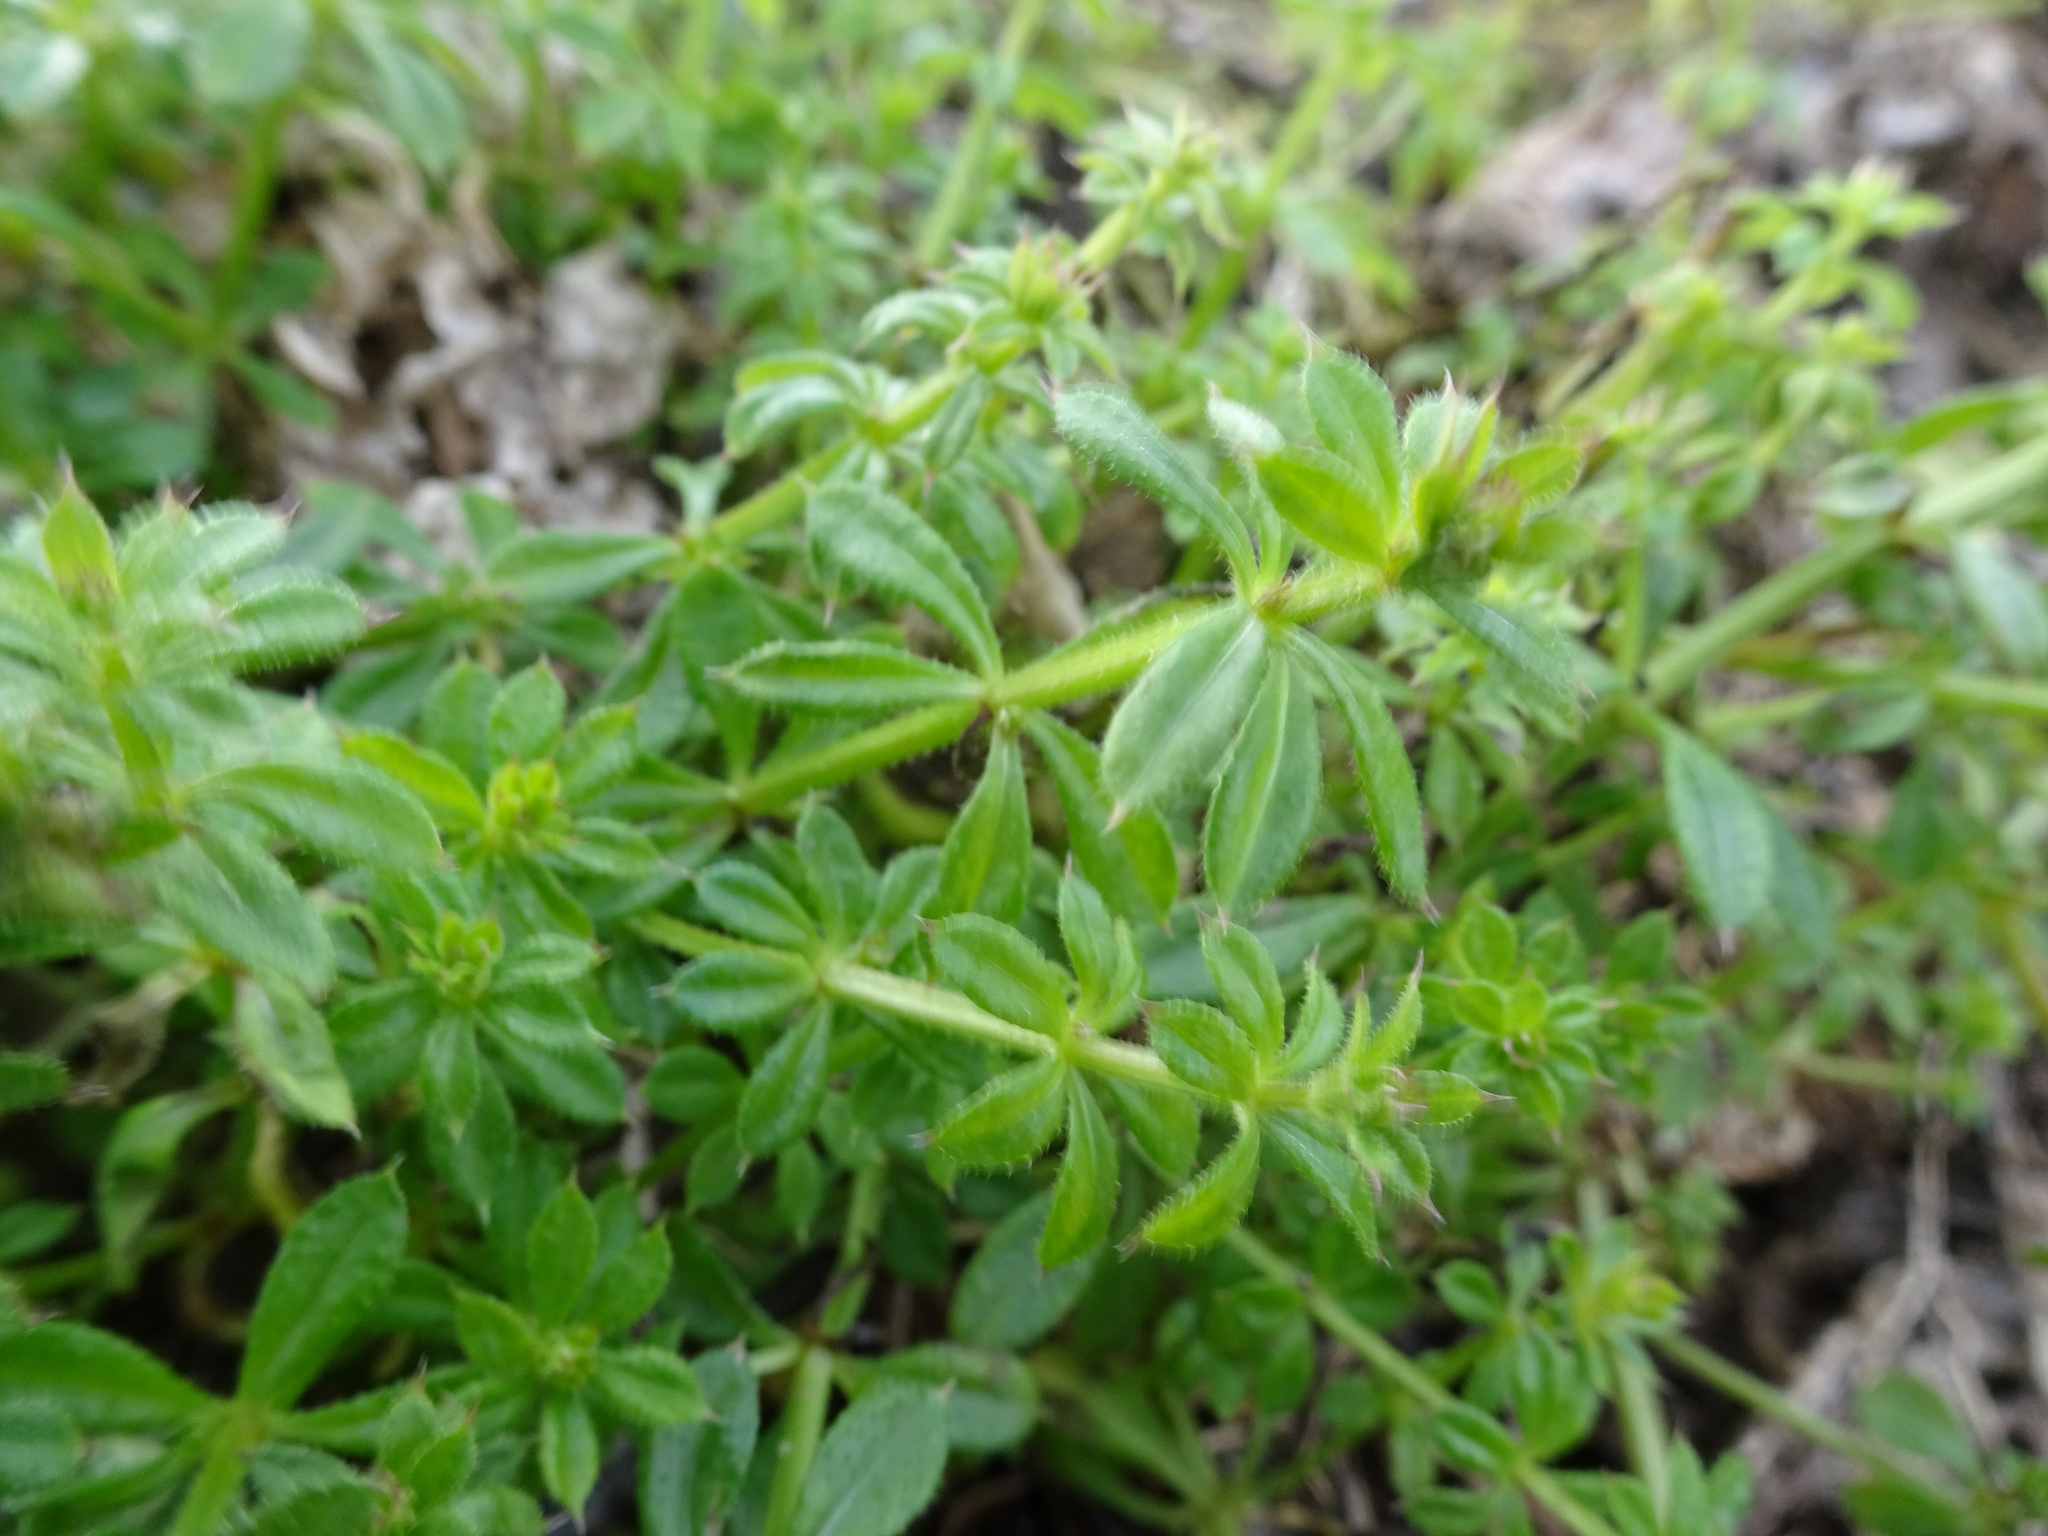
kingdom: Plantae
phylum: Tracheophyta
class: Magnoliopsida
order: Gentianales
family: Rubiaceae
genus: Galium
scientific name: Galium aparine
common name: Cleavers
